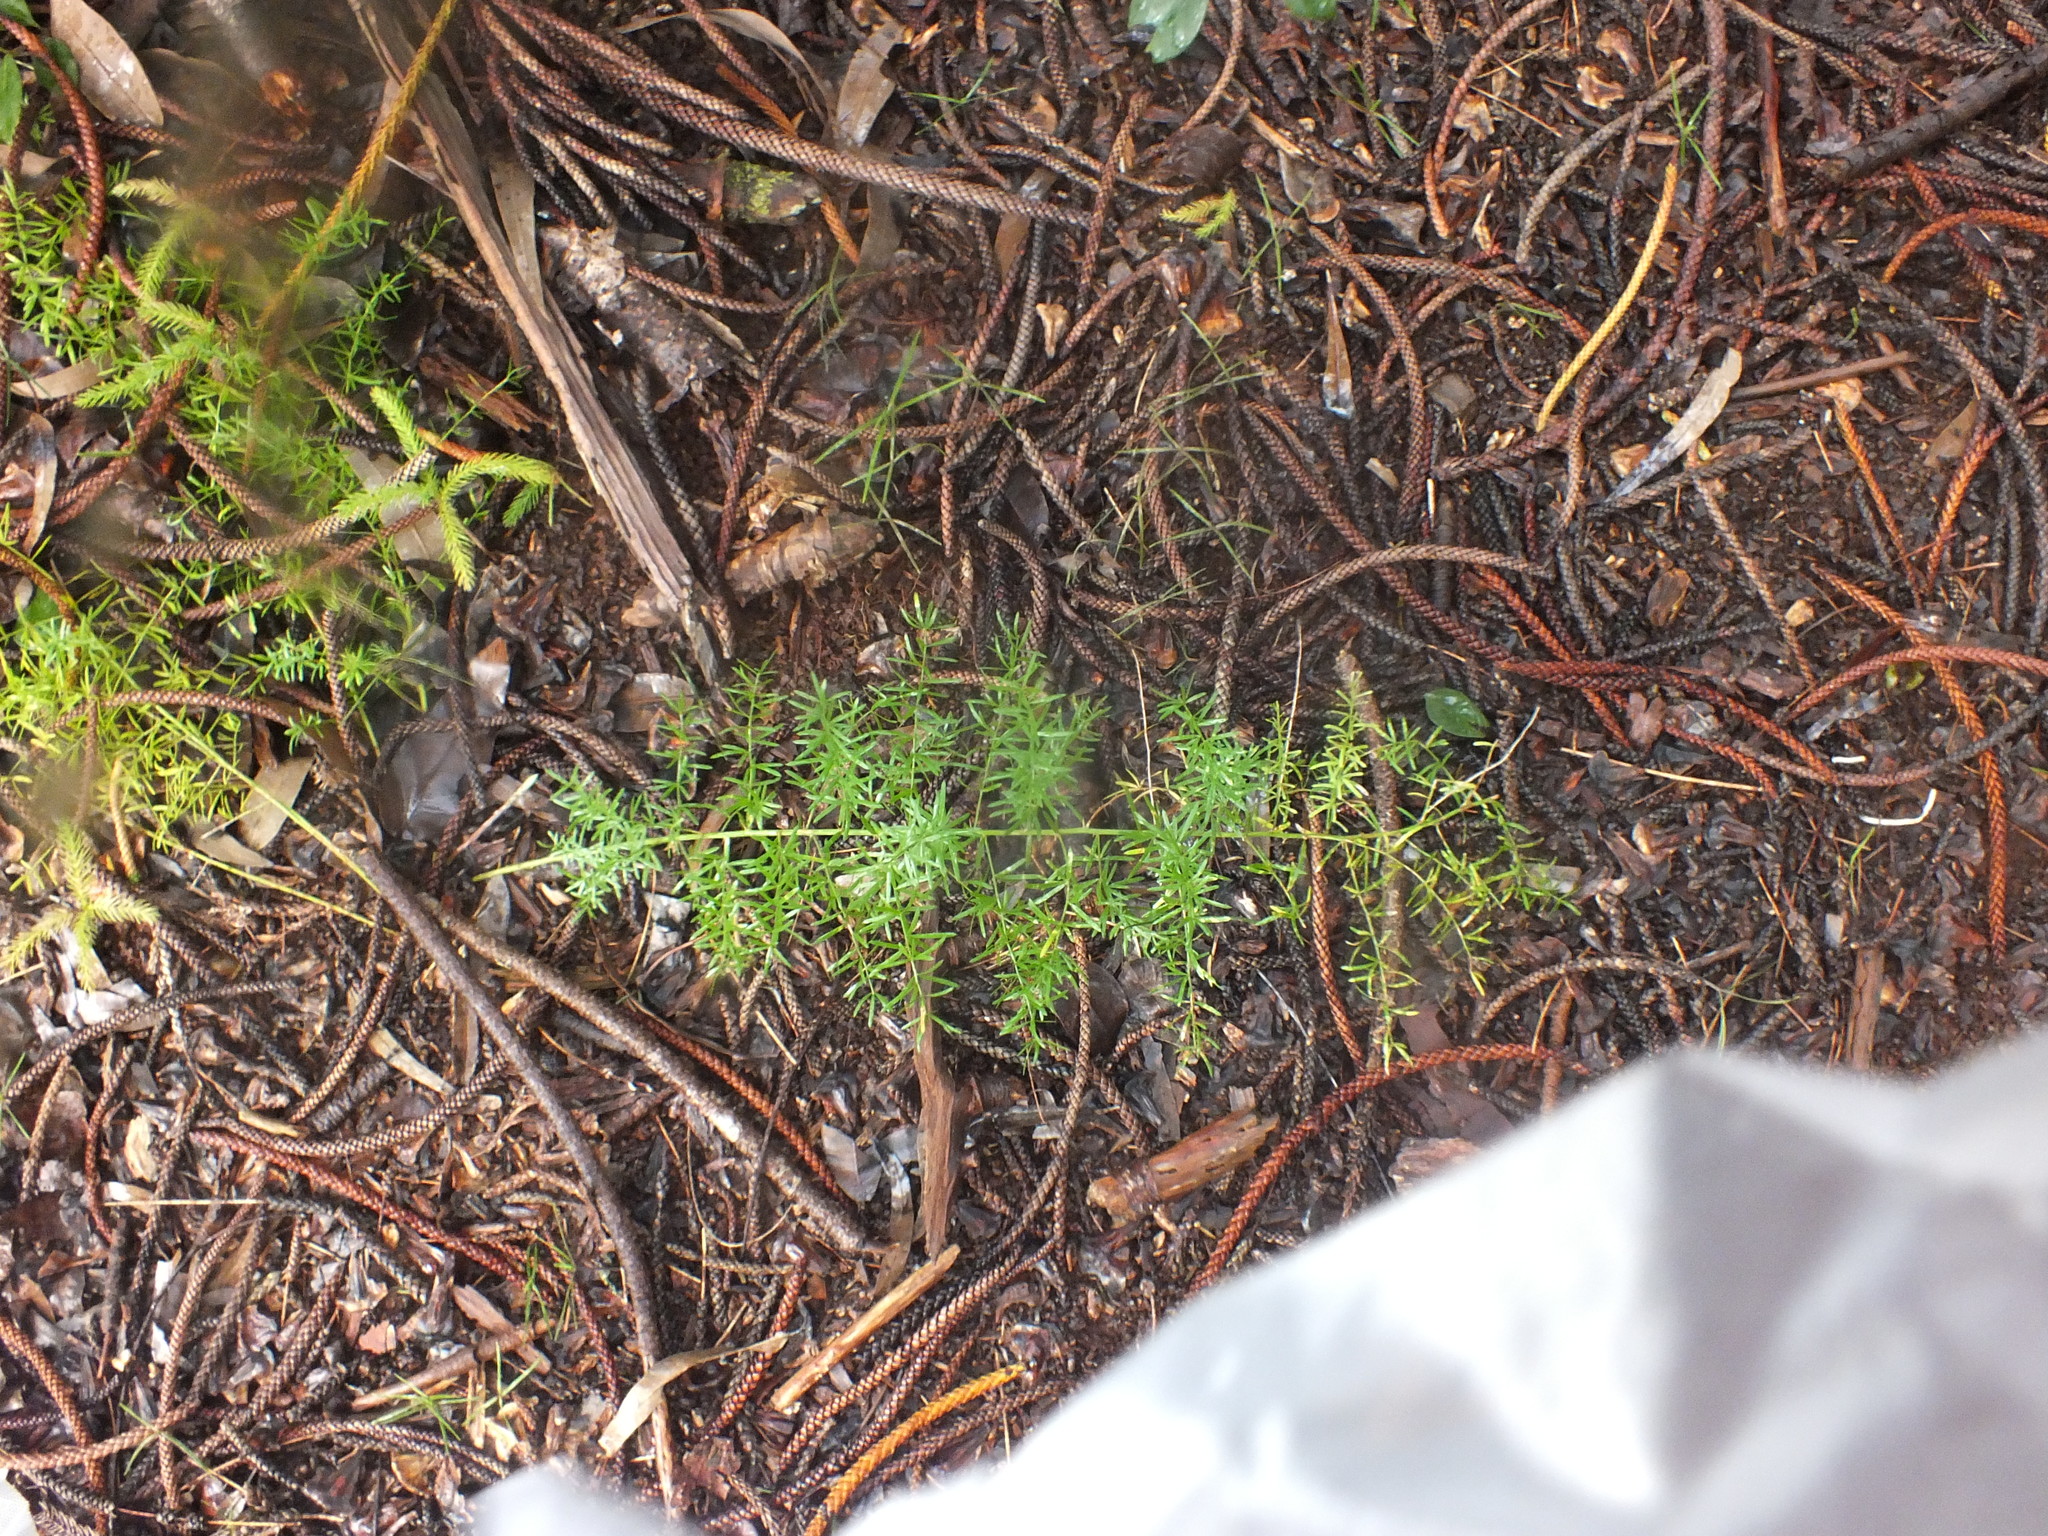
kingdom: Plantae
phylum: Tracheophyta
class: Liliopsida
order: Asparagales
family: Asparagaceae
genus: Asparagus
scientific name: Asparagus aethiopicus
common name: Sprenger's asparagus fern
